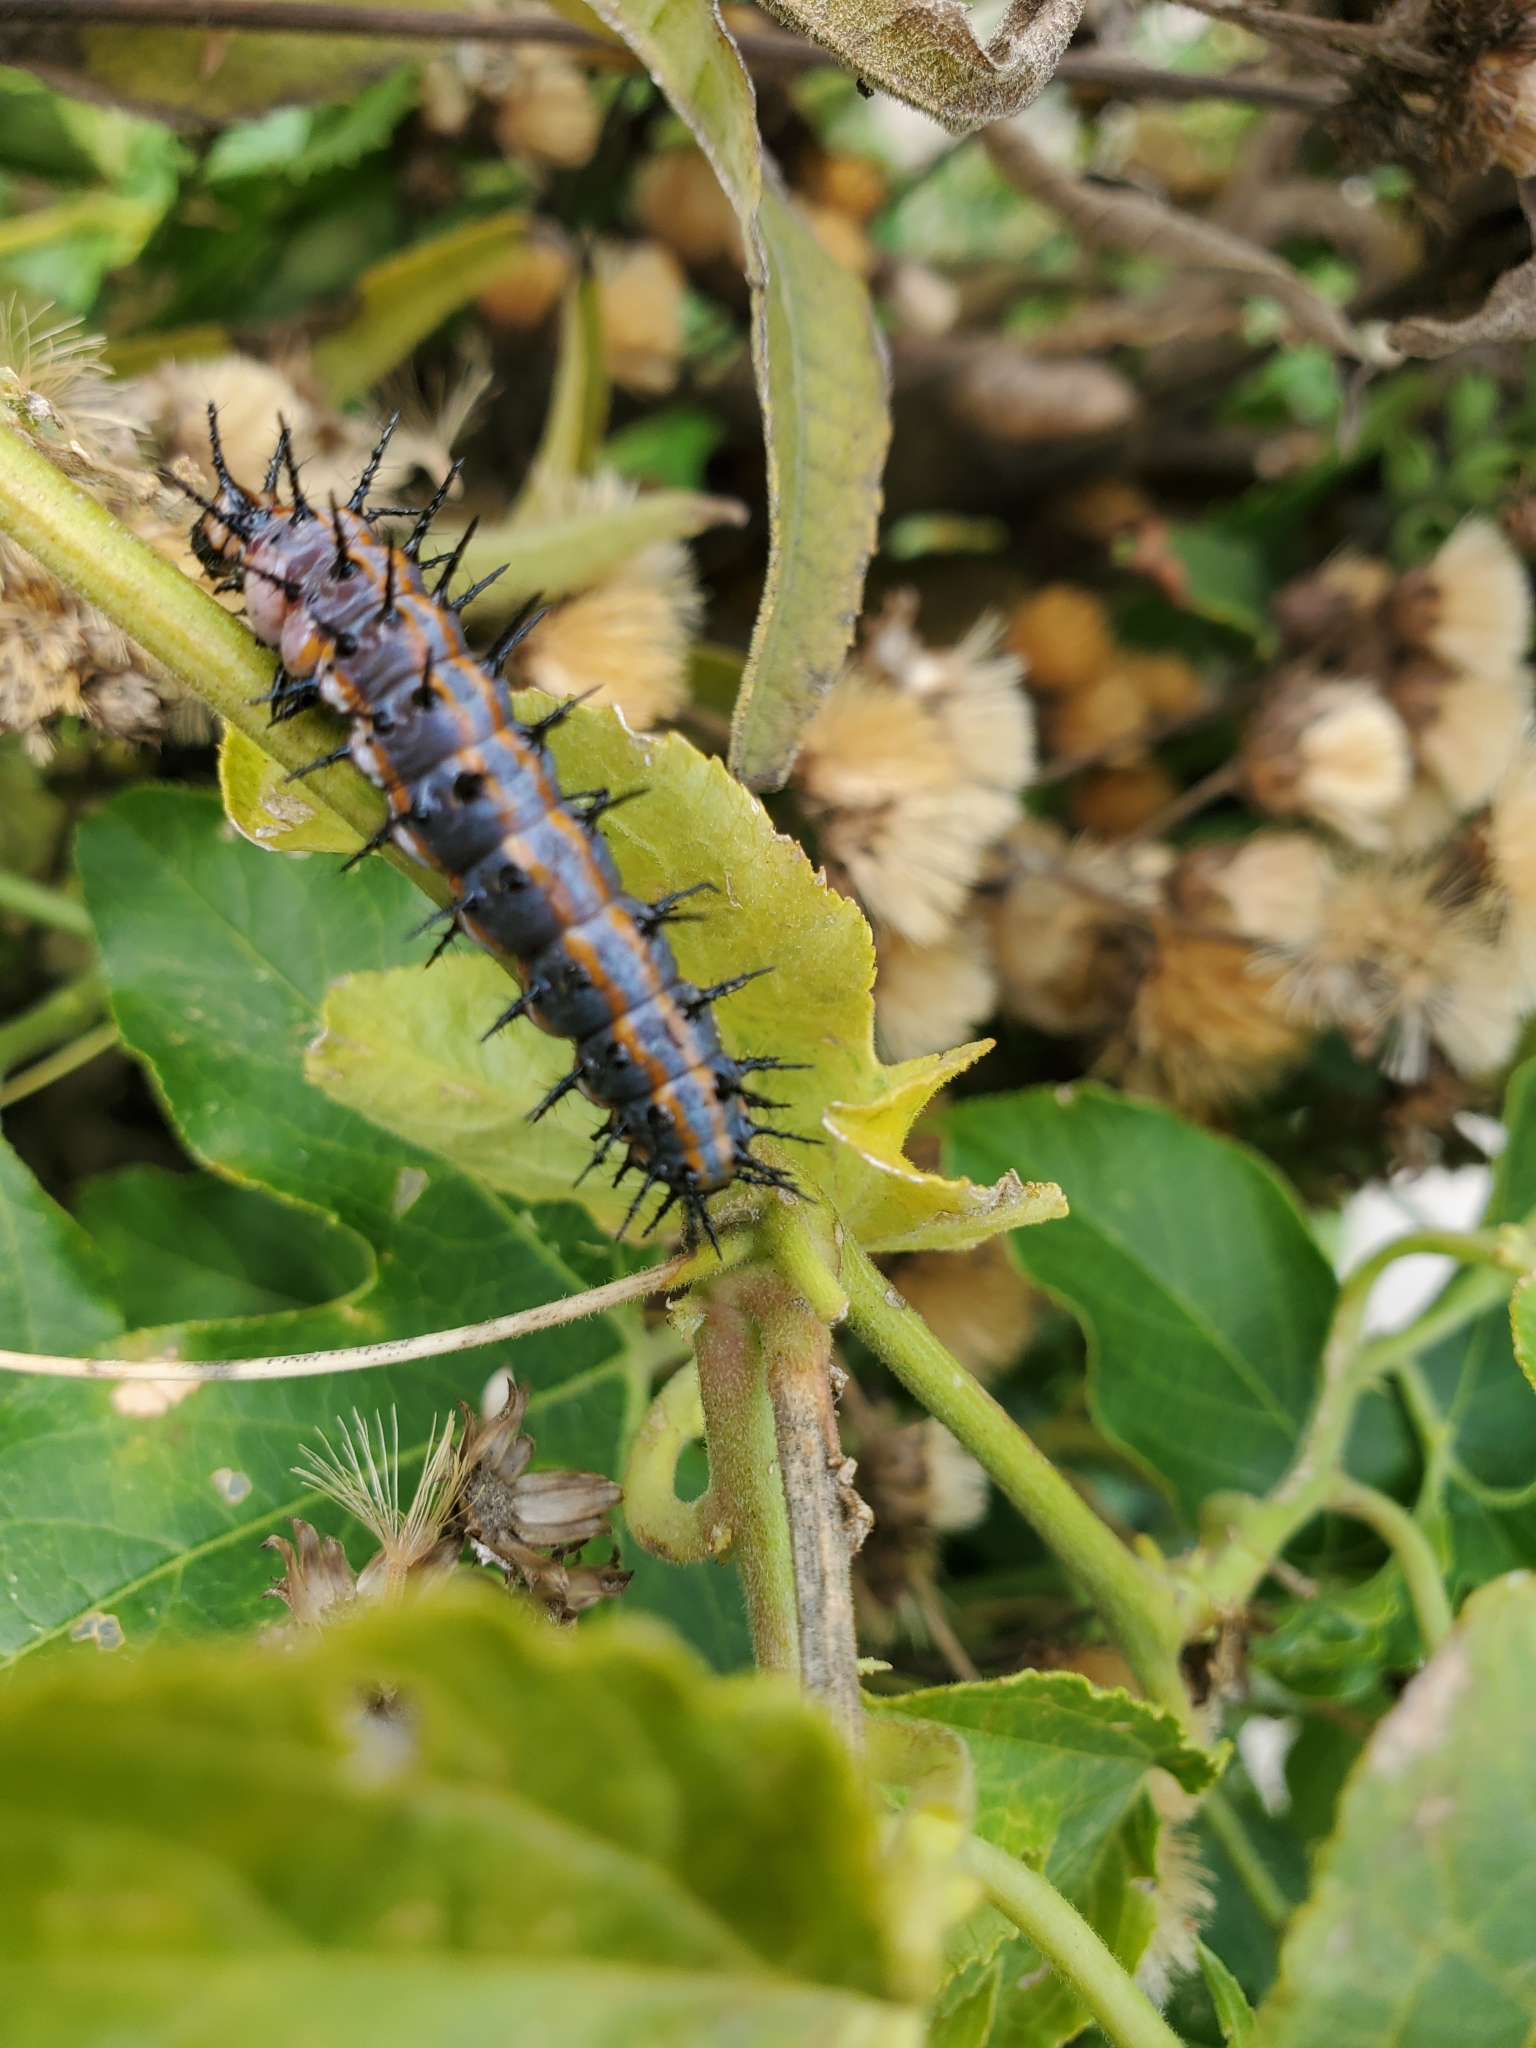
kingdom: Animalia
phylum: Arthropoda
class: Insecta
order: Lepidoptera
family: Nymphalidae
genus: Dione
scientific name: Dione vanillae
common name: Gulf fritillary
